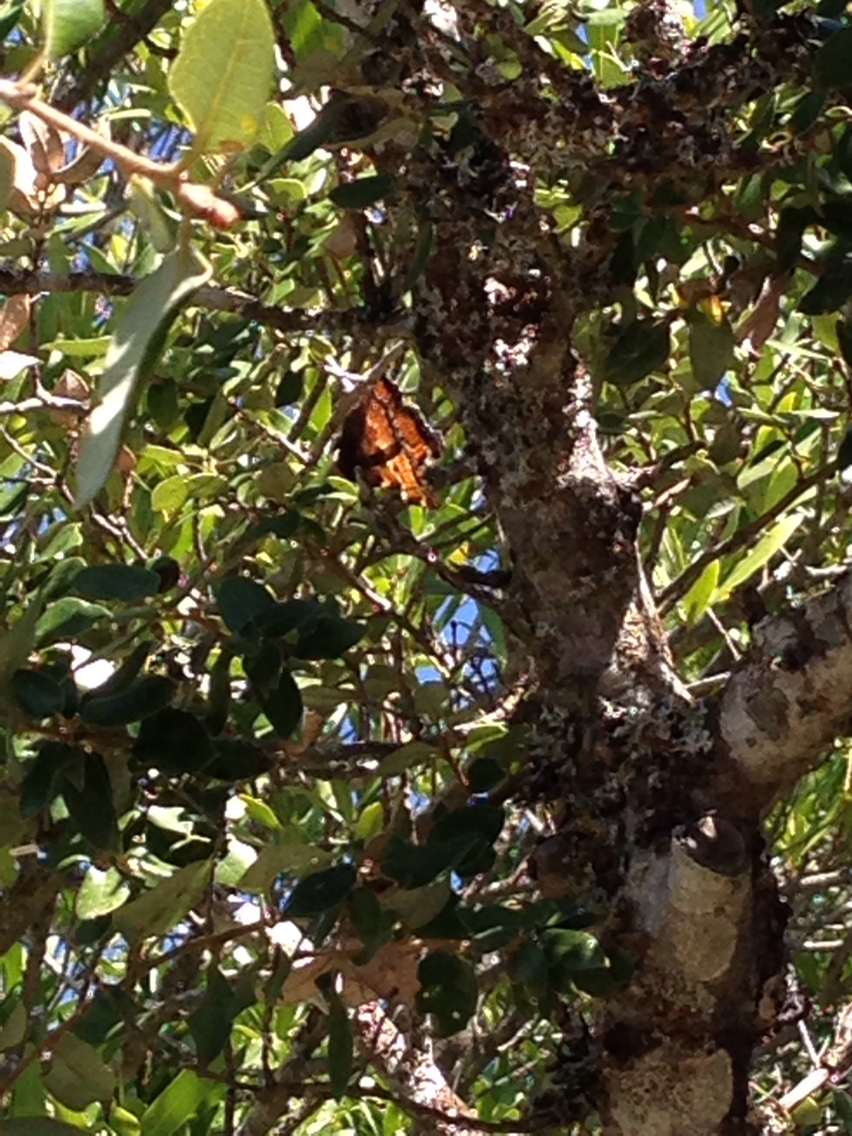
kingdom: Animalia
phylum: Arthropoda
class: Insecta
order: Lepidoptera
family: Nymphalidae
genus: Nymphalis
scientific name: Nymphalis californica
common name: California tortoiseshell
